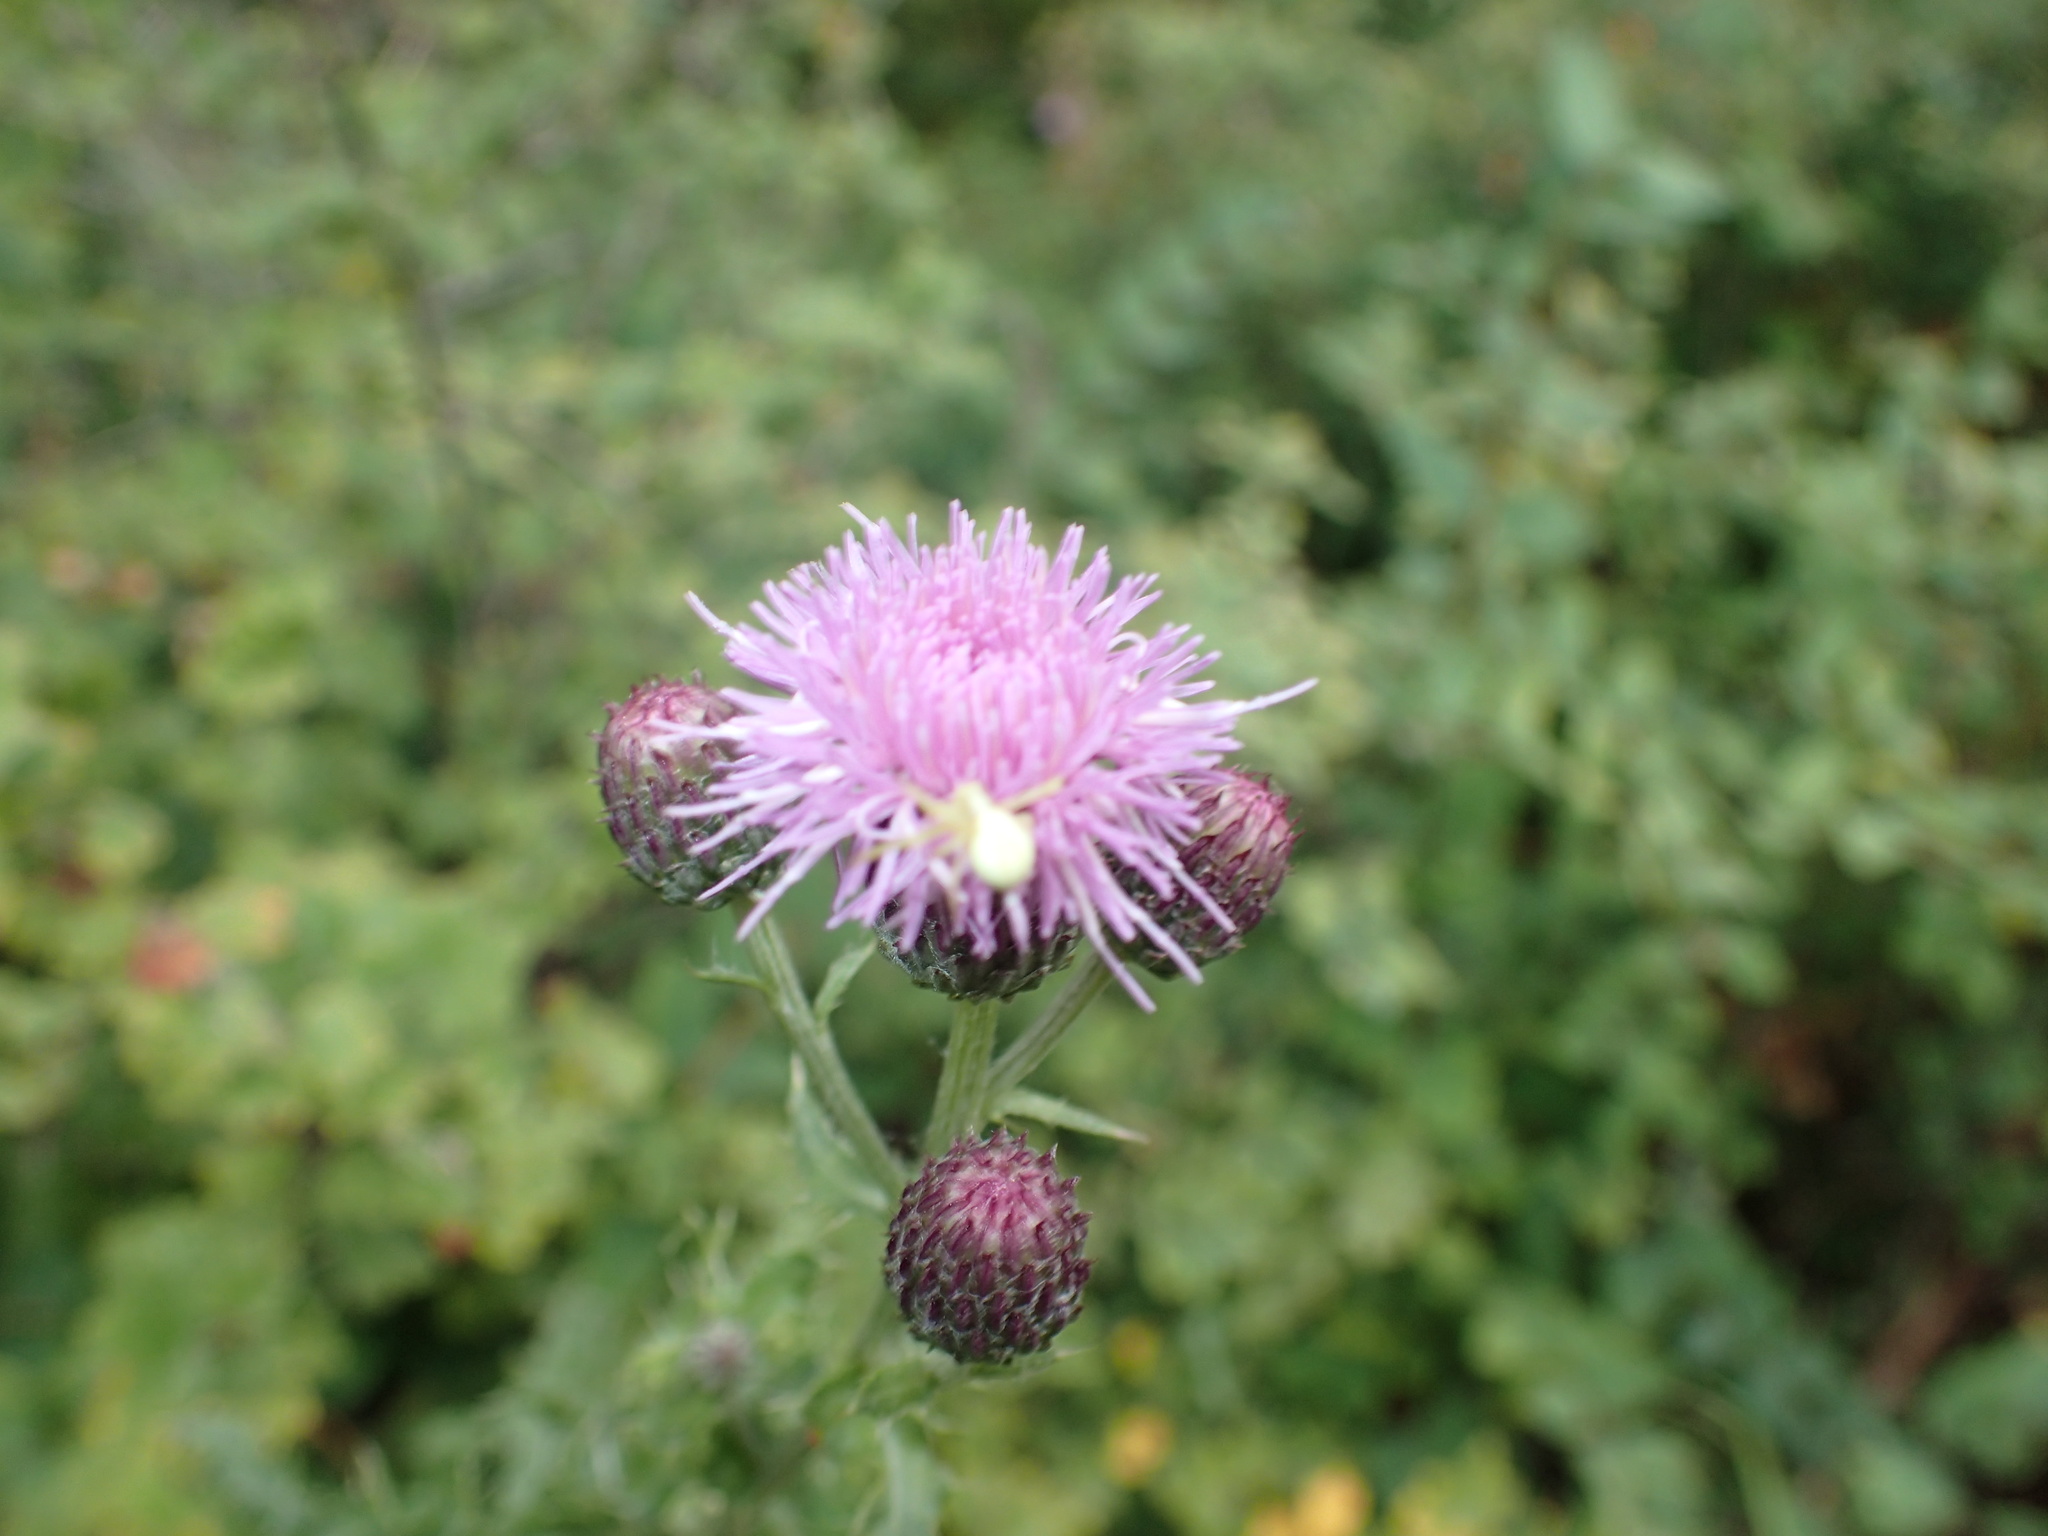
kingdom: Plantae
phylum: Tracheophyta
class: Magnoliopsida
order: Asterales
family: Asteraceae
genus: Cirsium
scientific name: Cirsium arvense
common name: Creeping thistle
